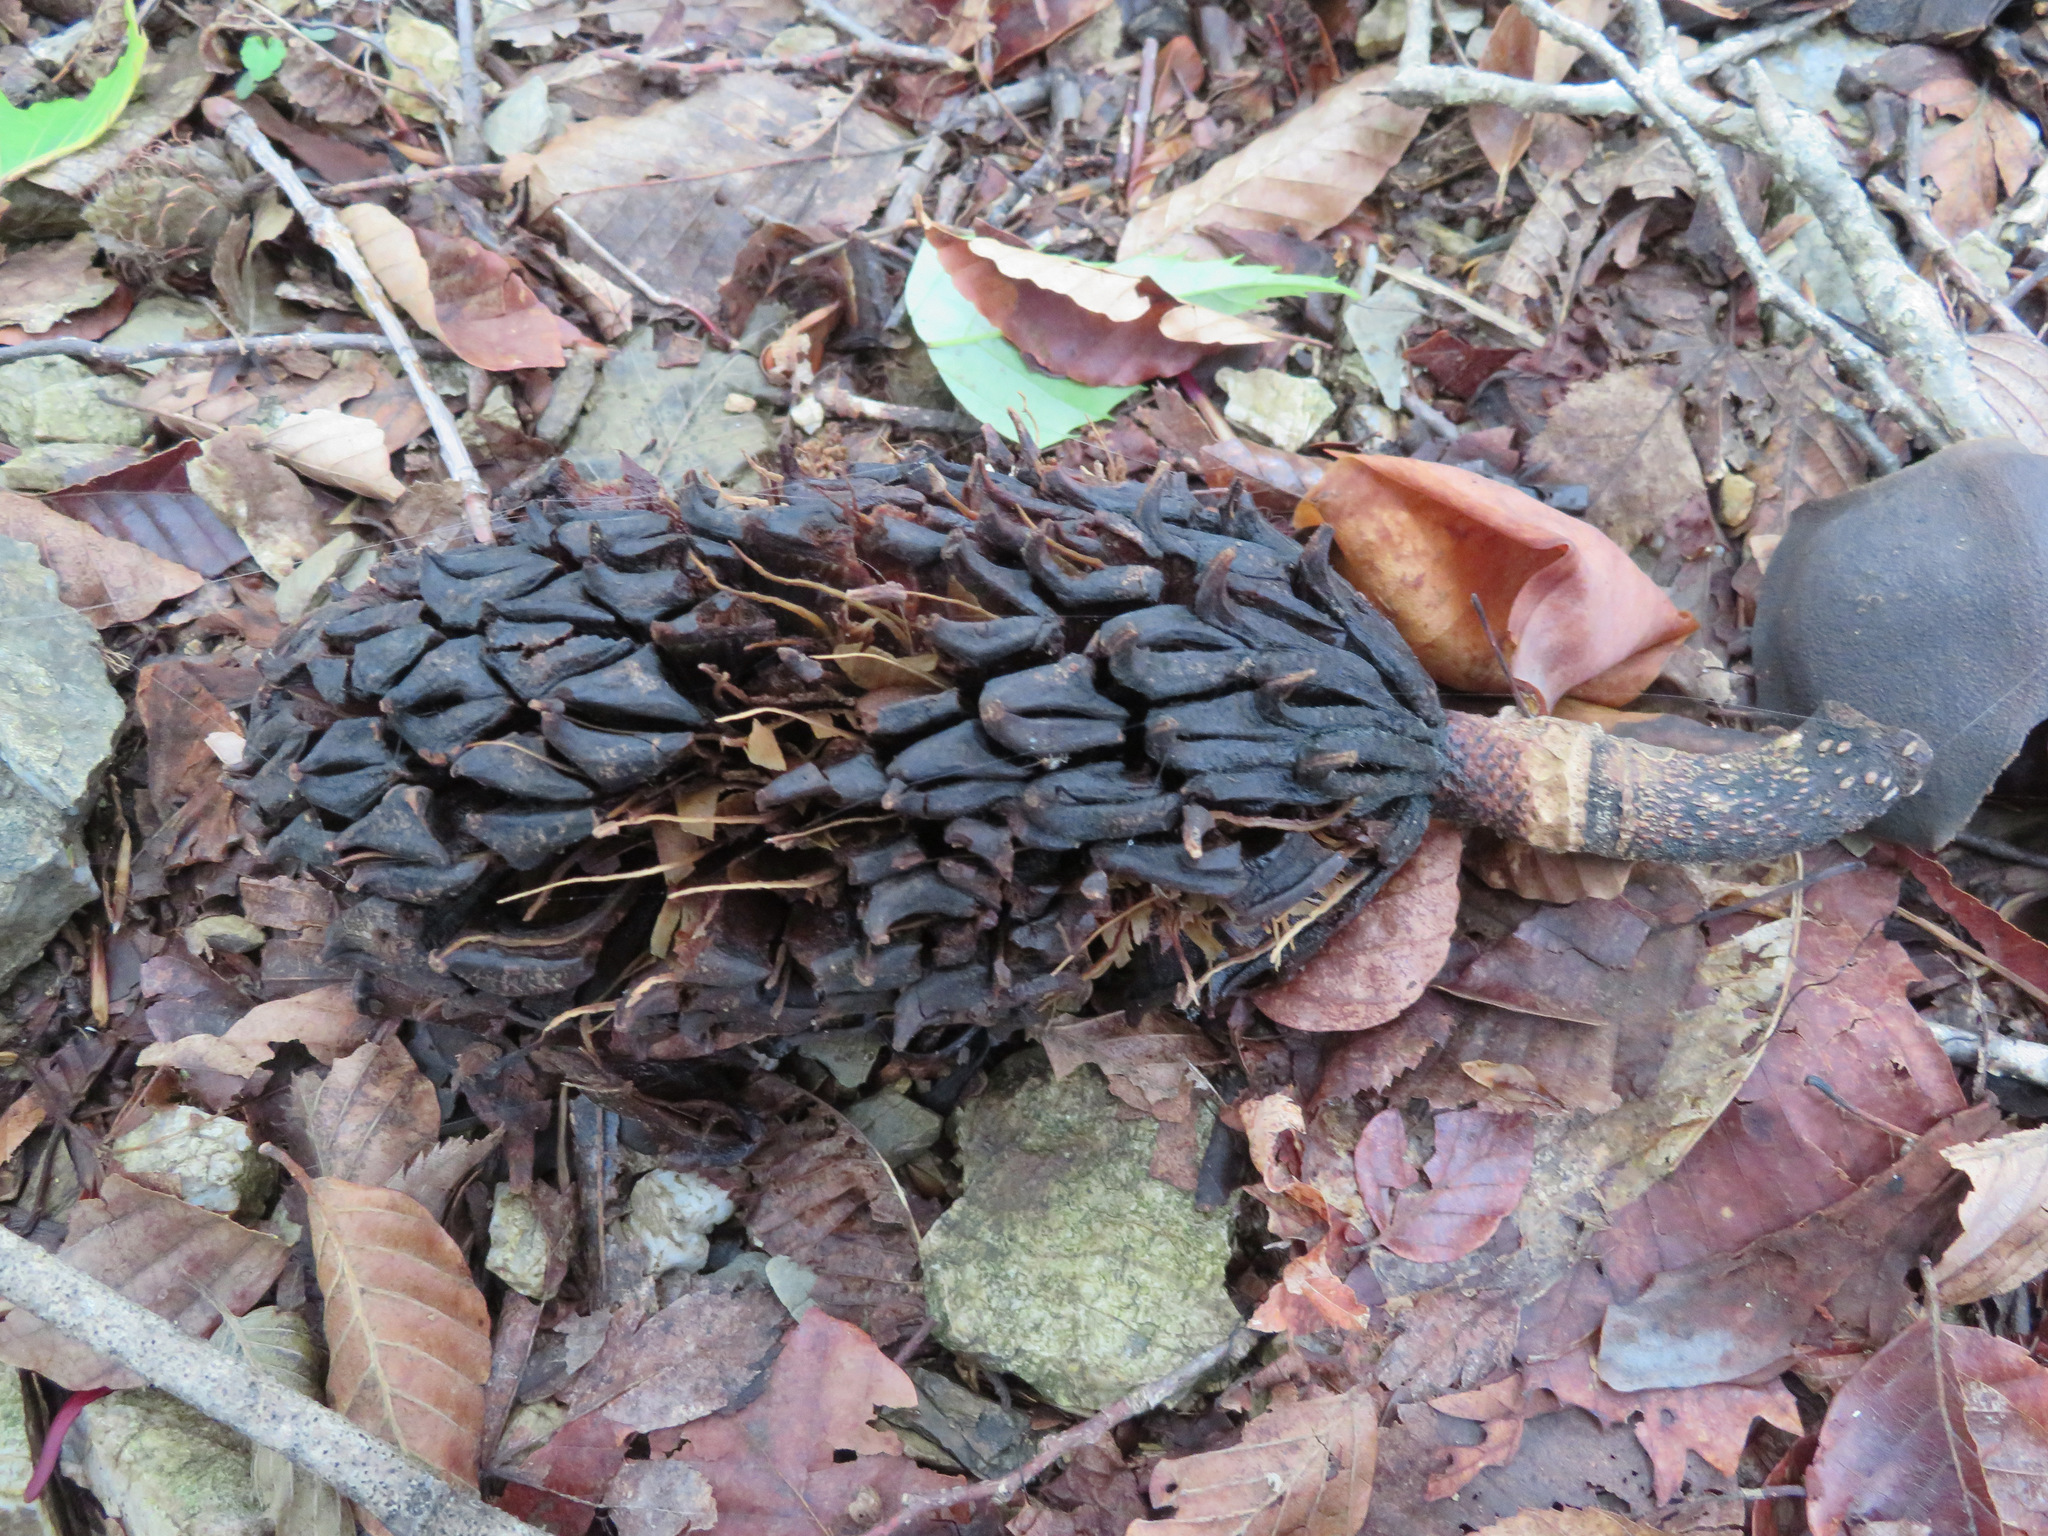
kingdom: Plantae
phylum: Tracheophyta
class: Magnoliopsida
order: Magnoliales
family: Magnoliaceae
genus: Magnolia
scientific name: Magnolia obovata
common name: Japanese whitebark magnolia
